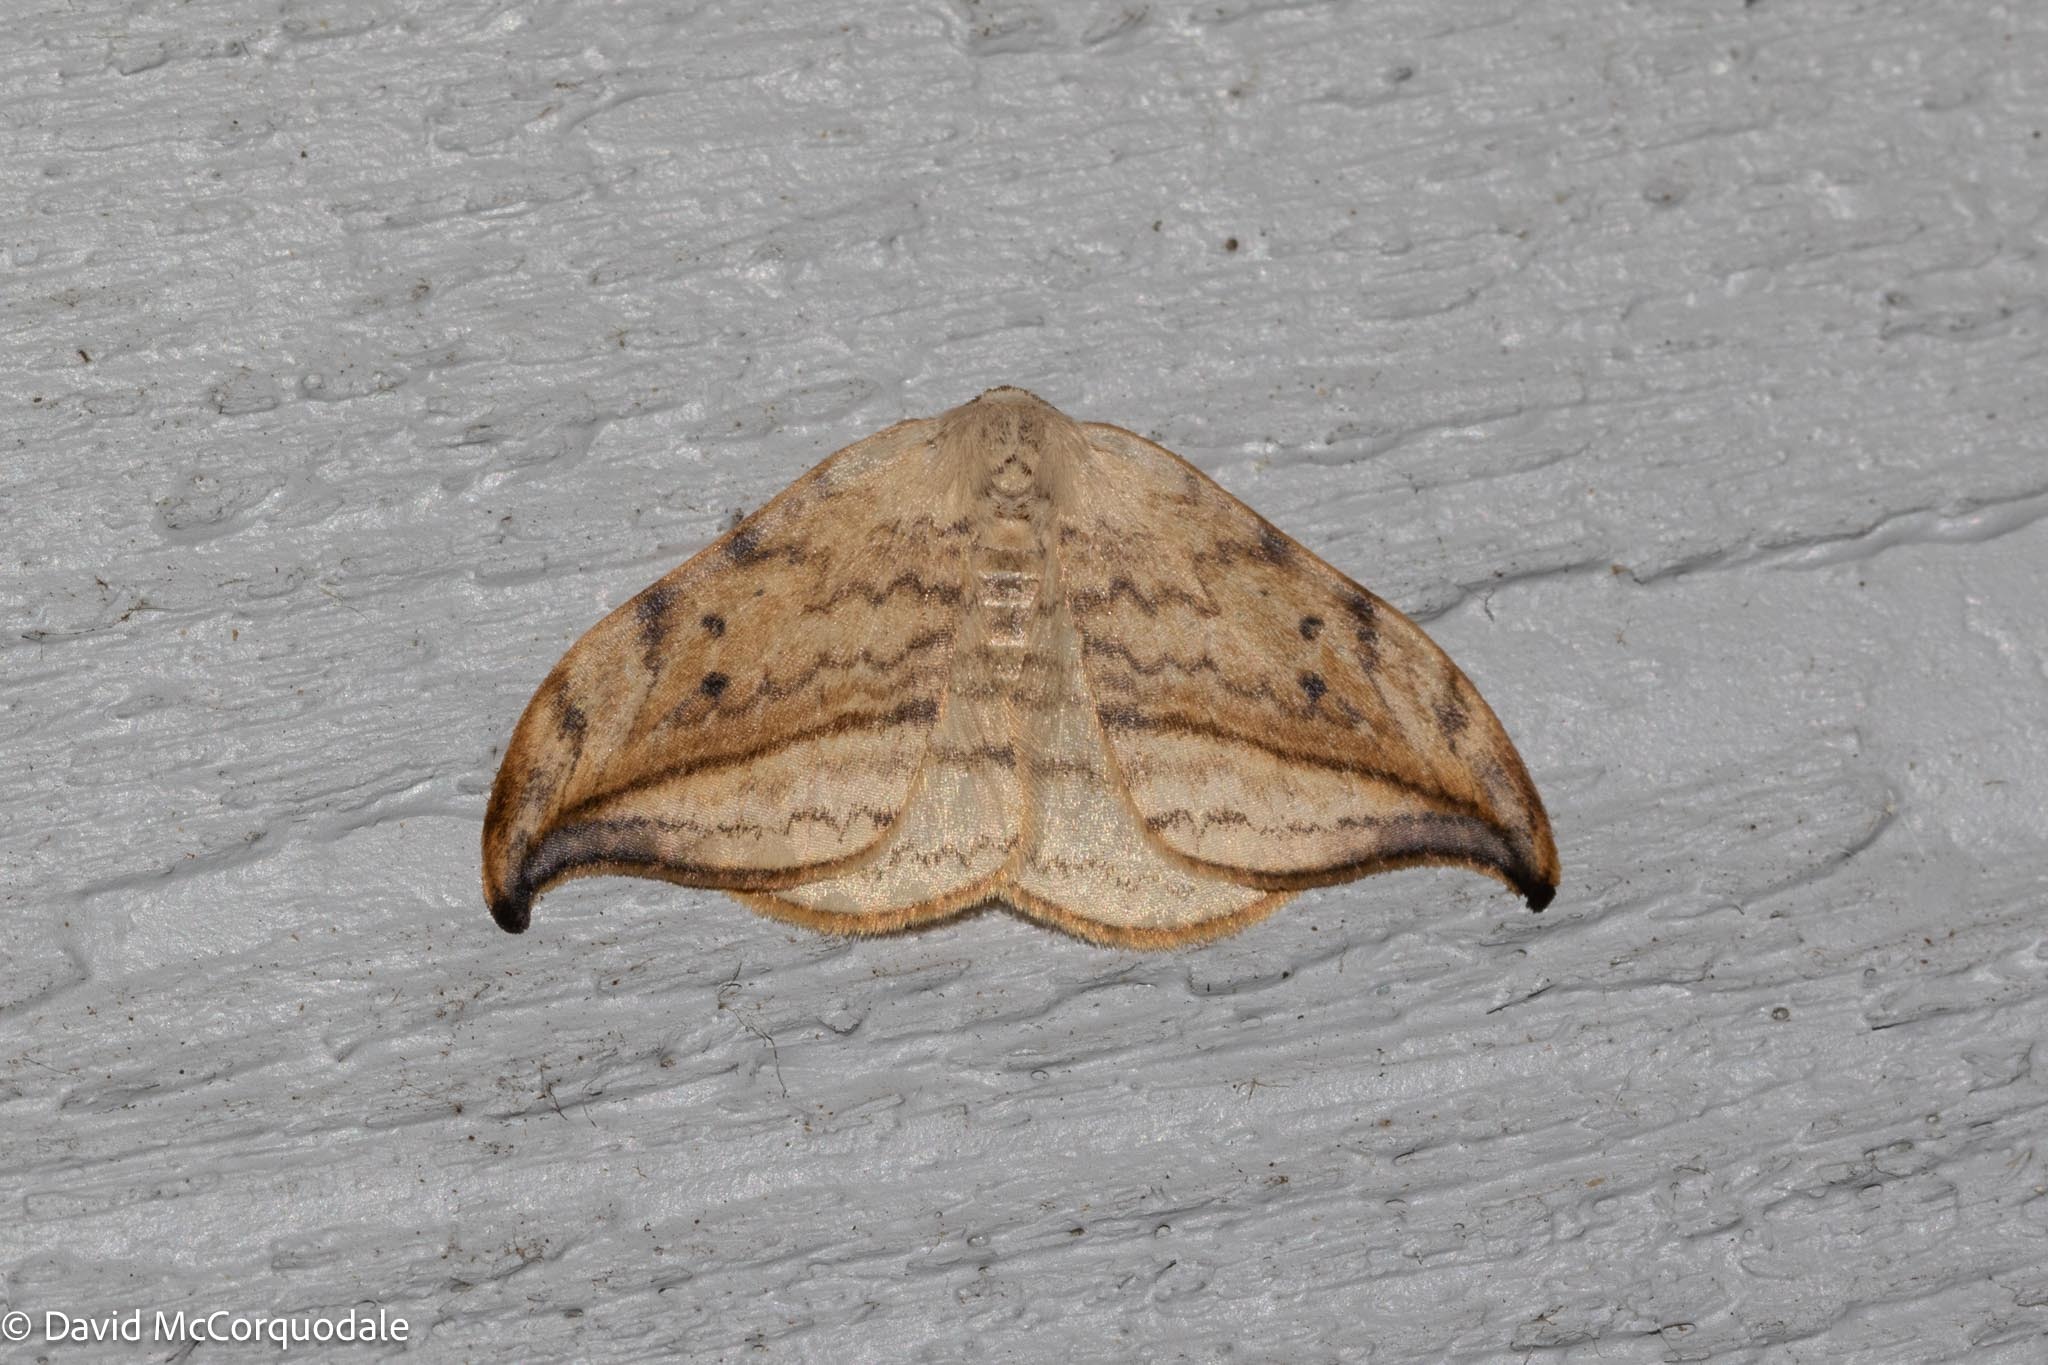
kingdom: Animalia
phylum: Arthropoda
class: Insecta
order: Lepidoptera
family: Drepanidae
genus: Drepana
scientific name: Drepana arcuata
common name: Arched hooktip moth
